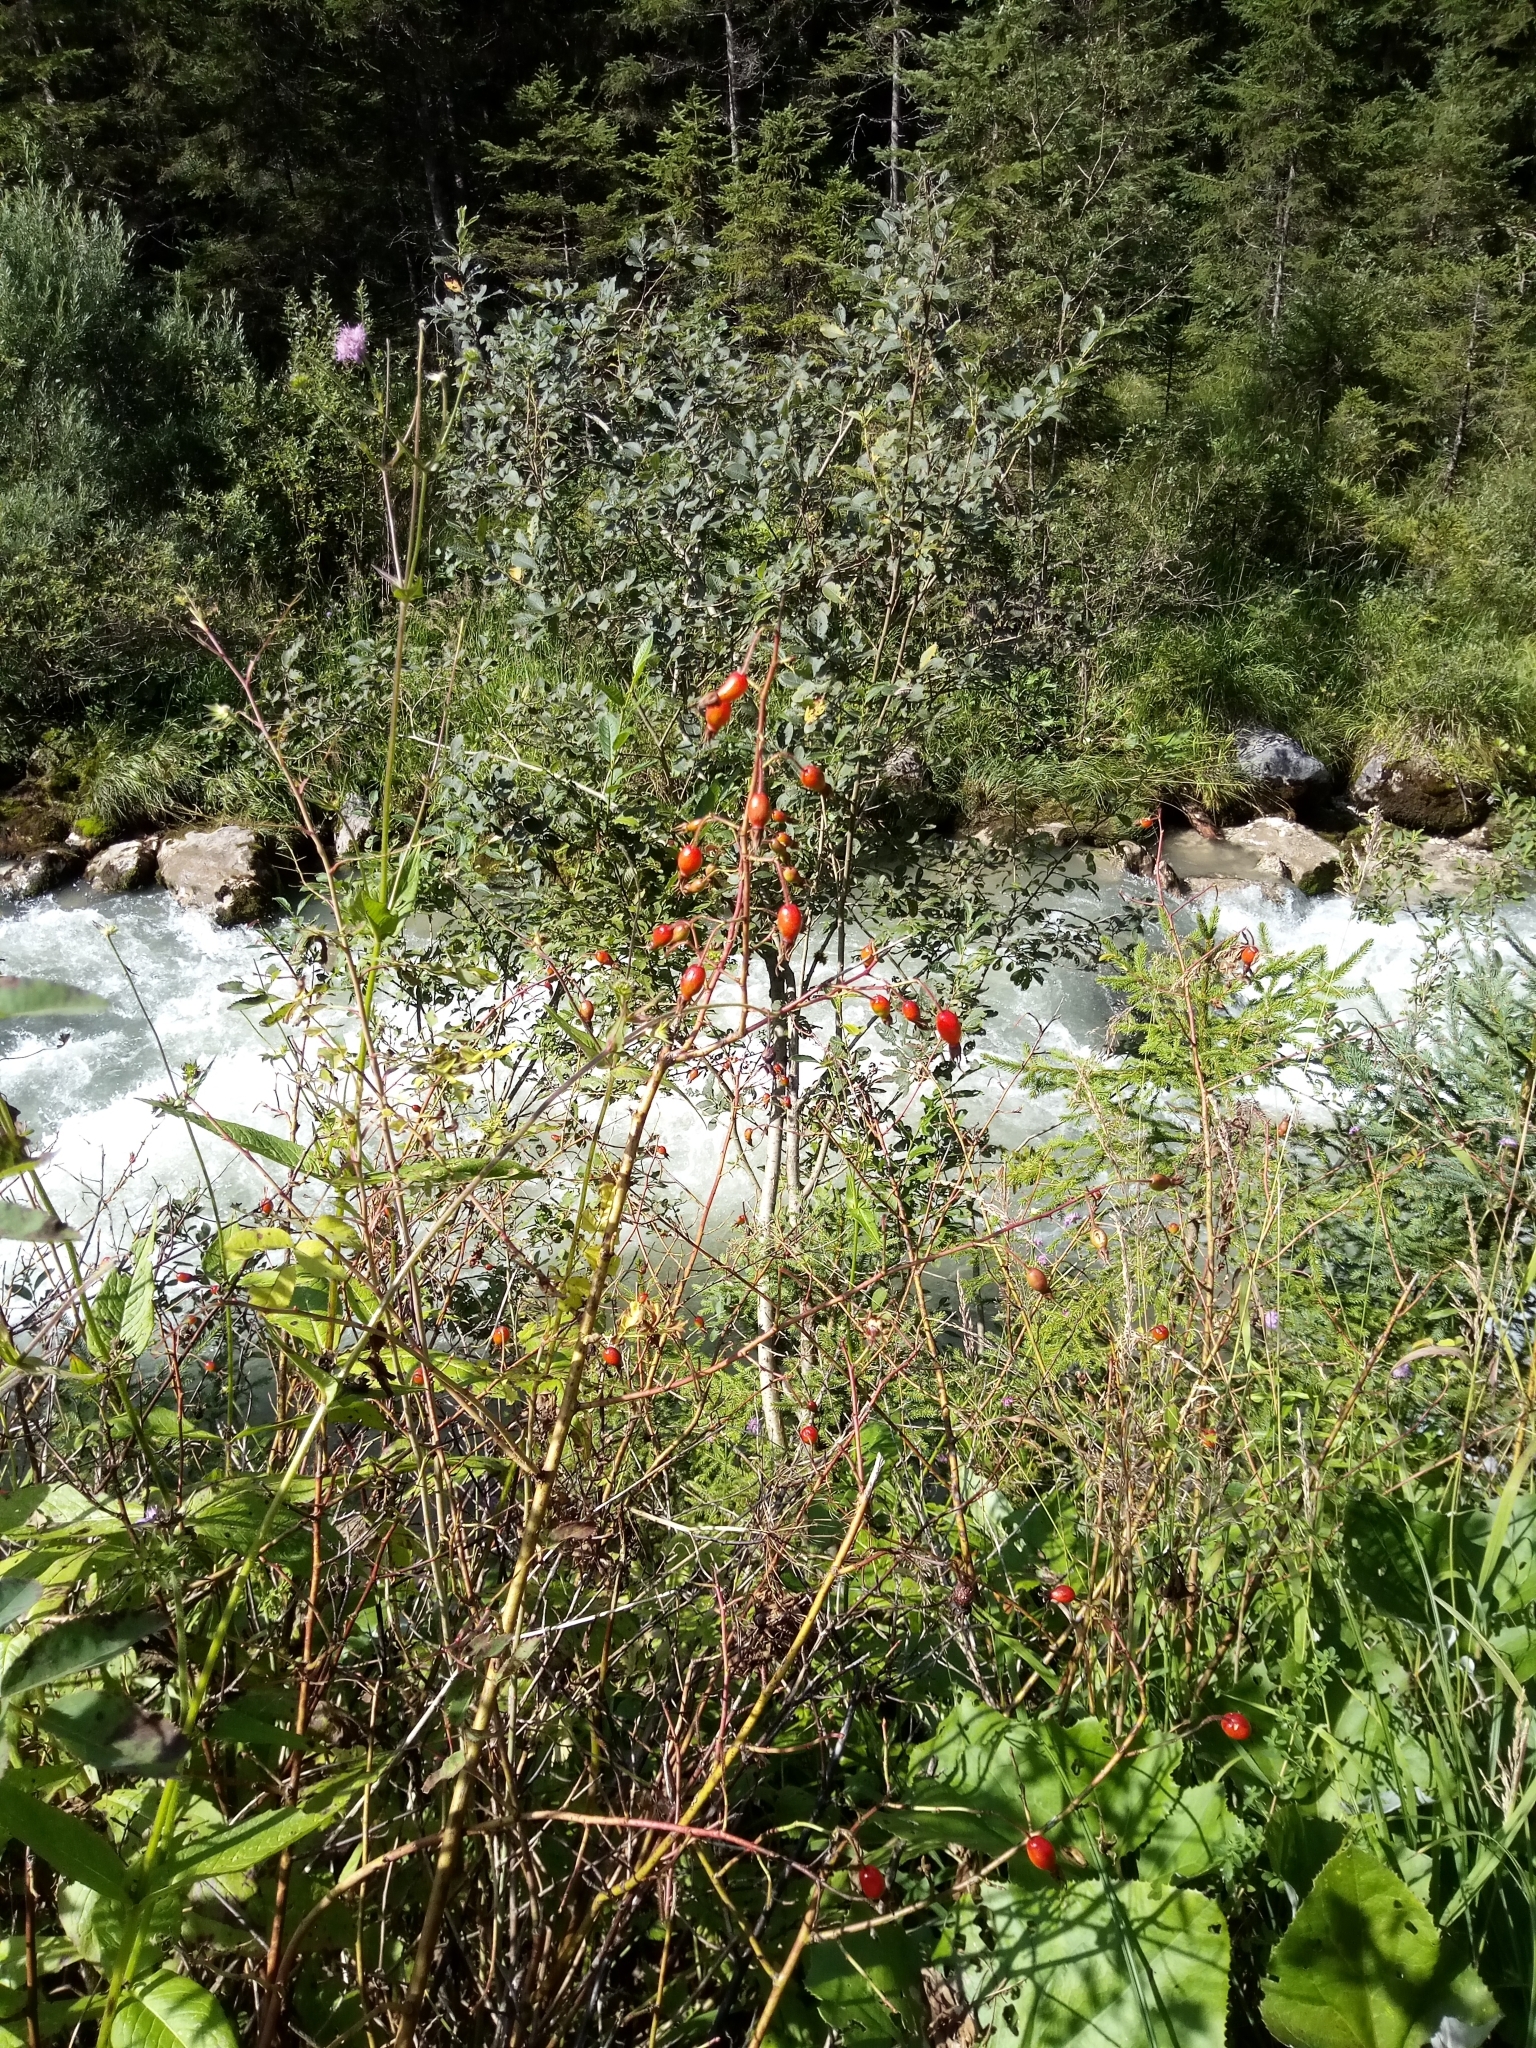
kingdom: Plantae
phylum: Tracheophyta
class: Magnoliopsida
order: Rosales
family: Rosaceae
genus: Rosa
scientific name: Rosa pendulina
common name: Alpine rose
